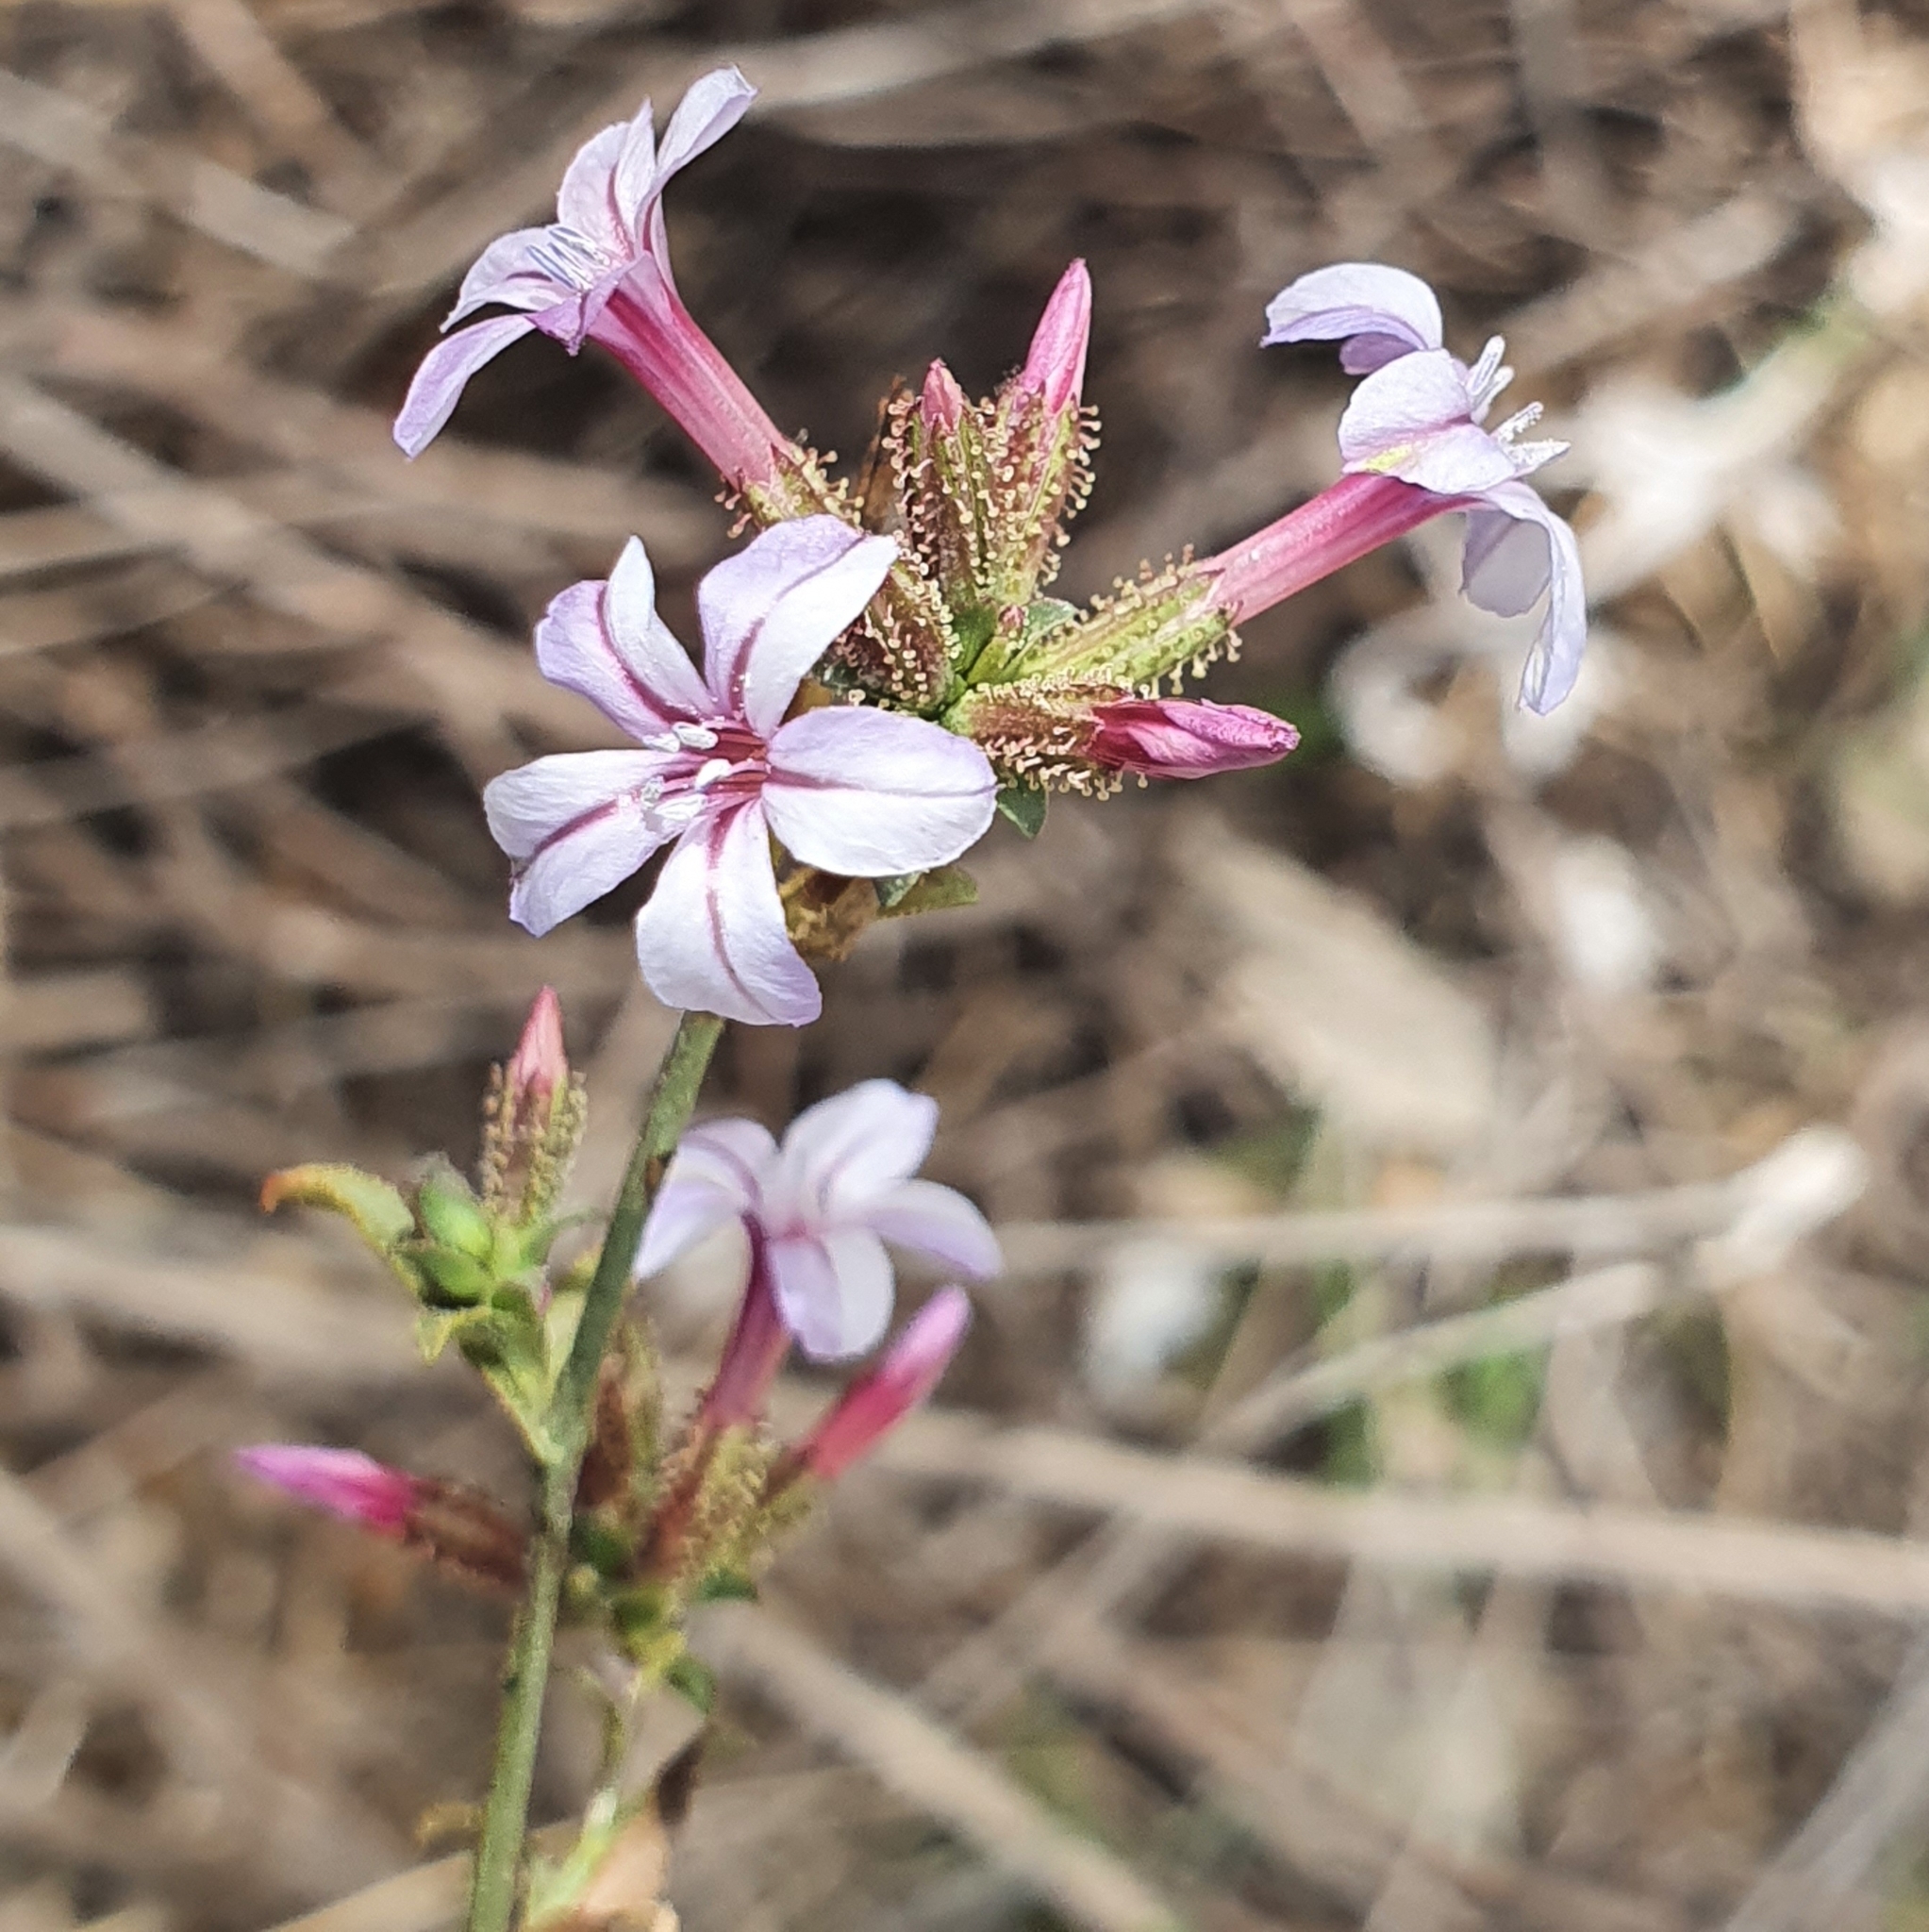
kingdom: Plantae
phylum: Tracheophyta
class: Magnoliopsida
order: Caryophyllales
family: Plumbaginaceae
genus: Plumbago
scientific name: Plumbago europaea
